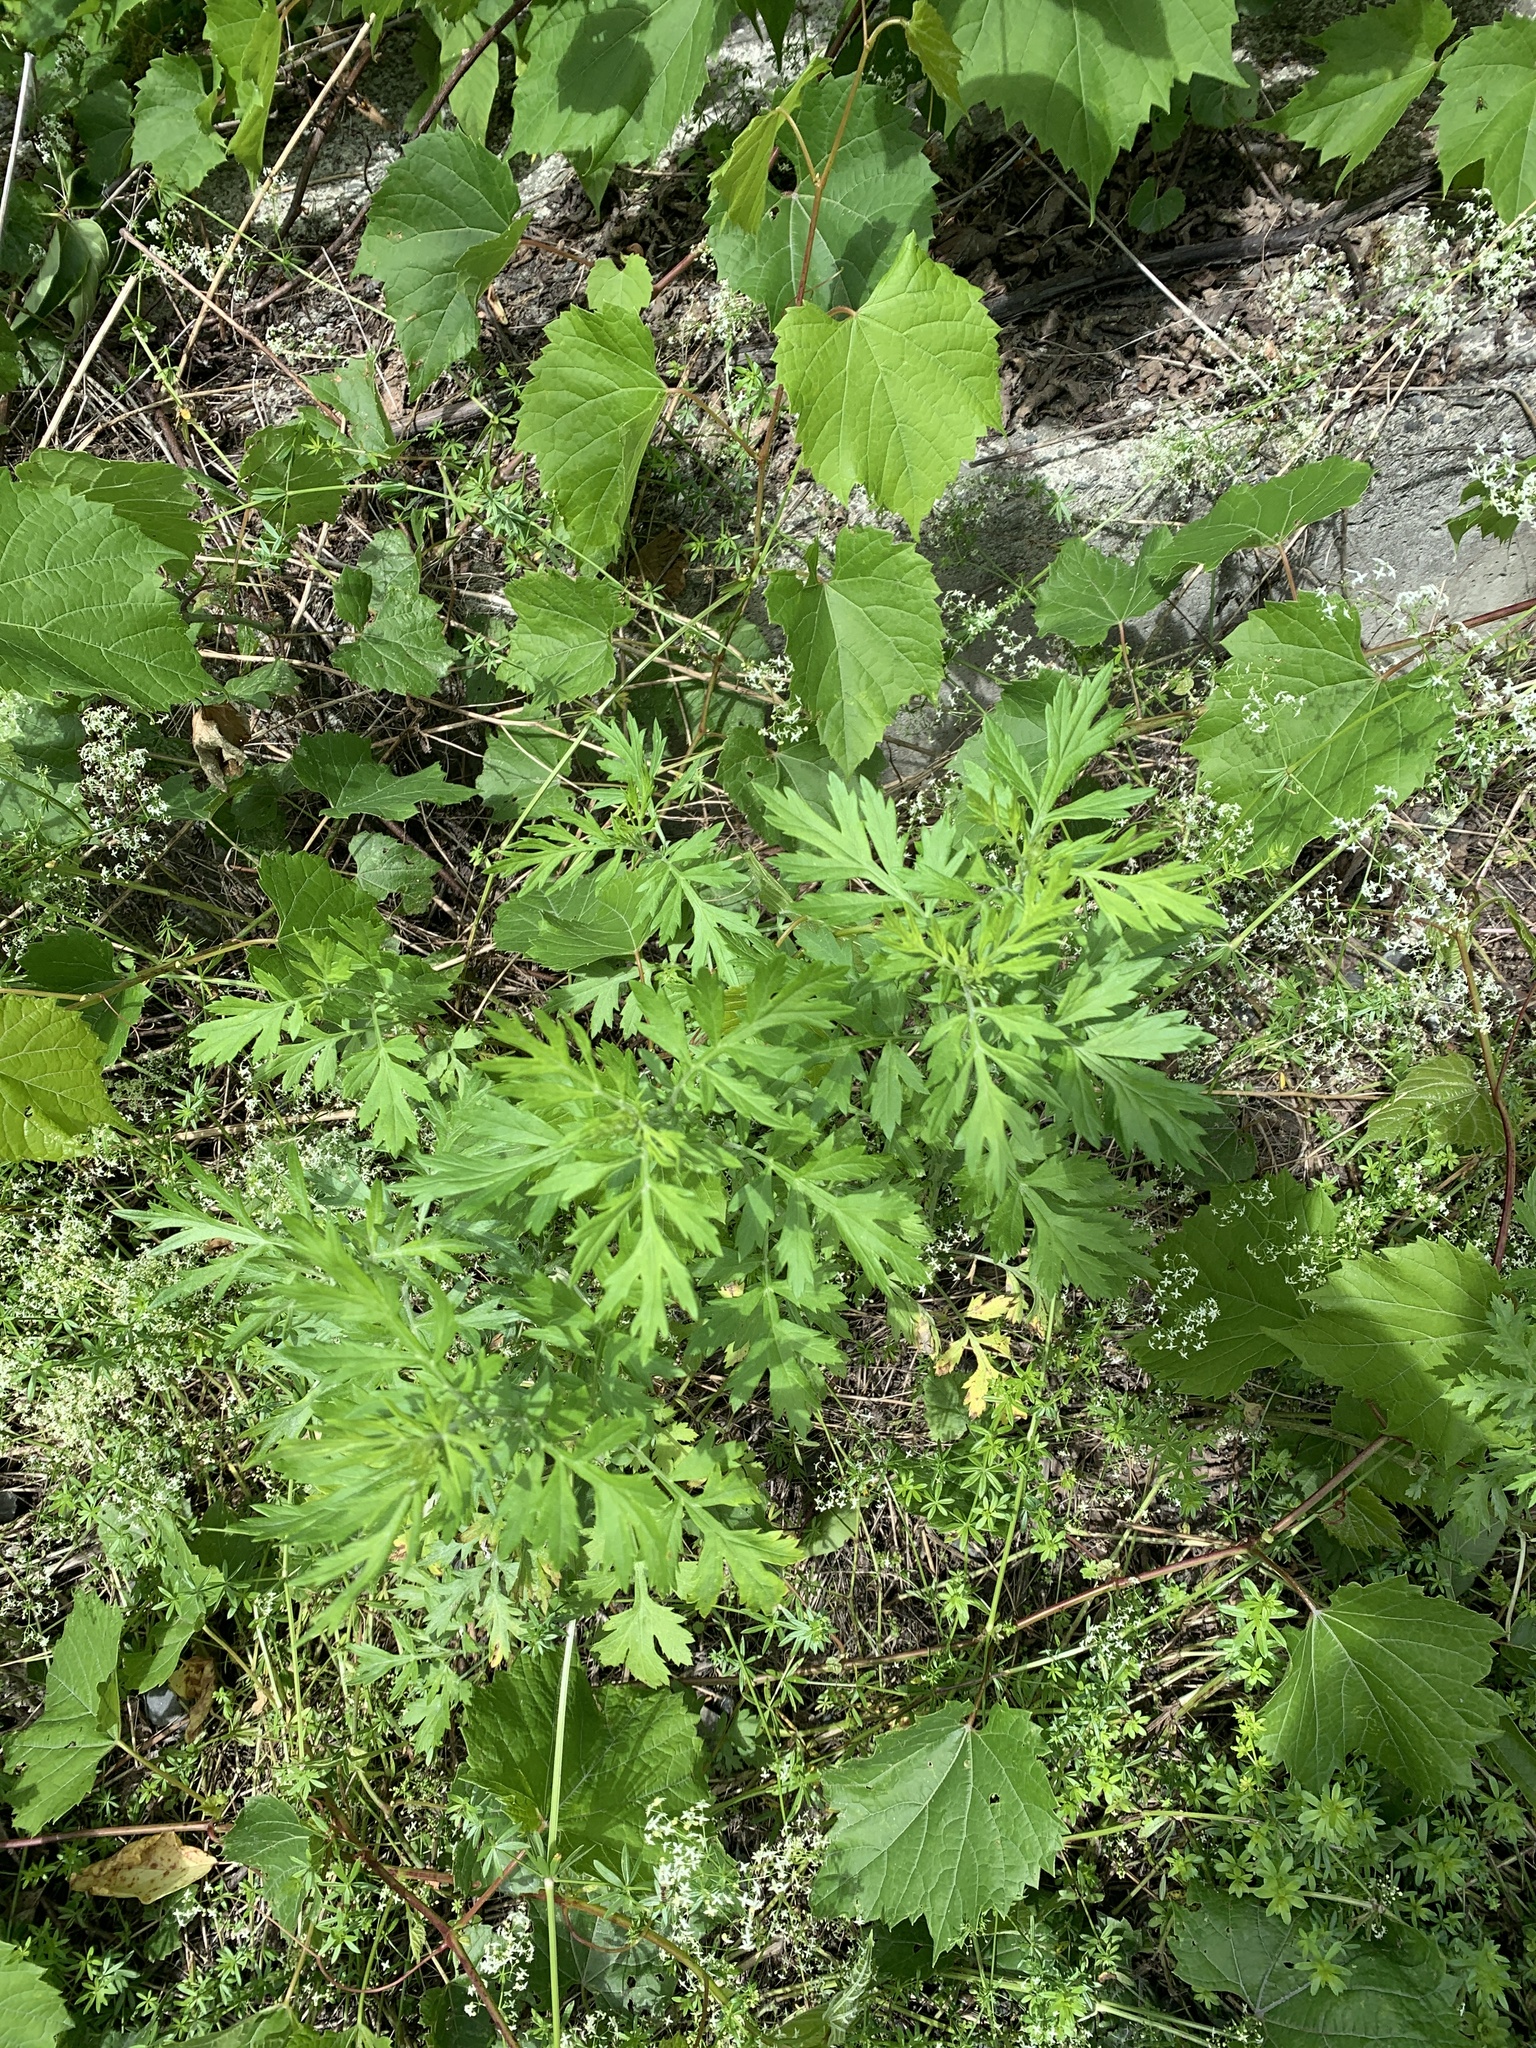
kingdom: Plantae
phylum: Tracheophyta
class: Magnoliopsida
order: Asterales
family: Asteraceae
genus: Artemisia
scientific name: Artemisia vulgaris
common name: Mugwort
